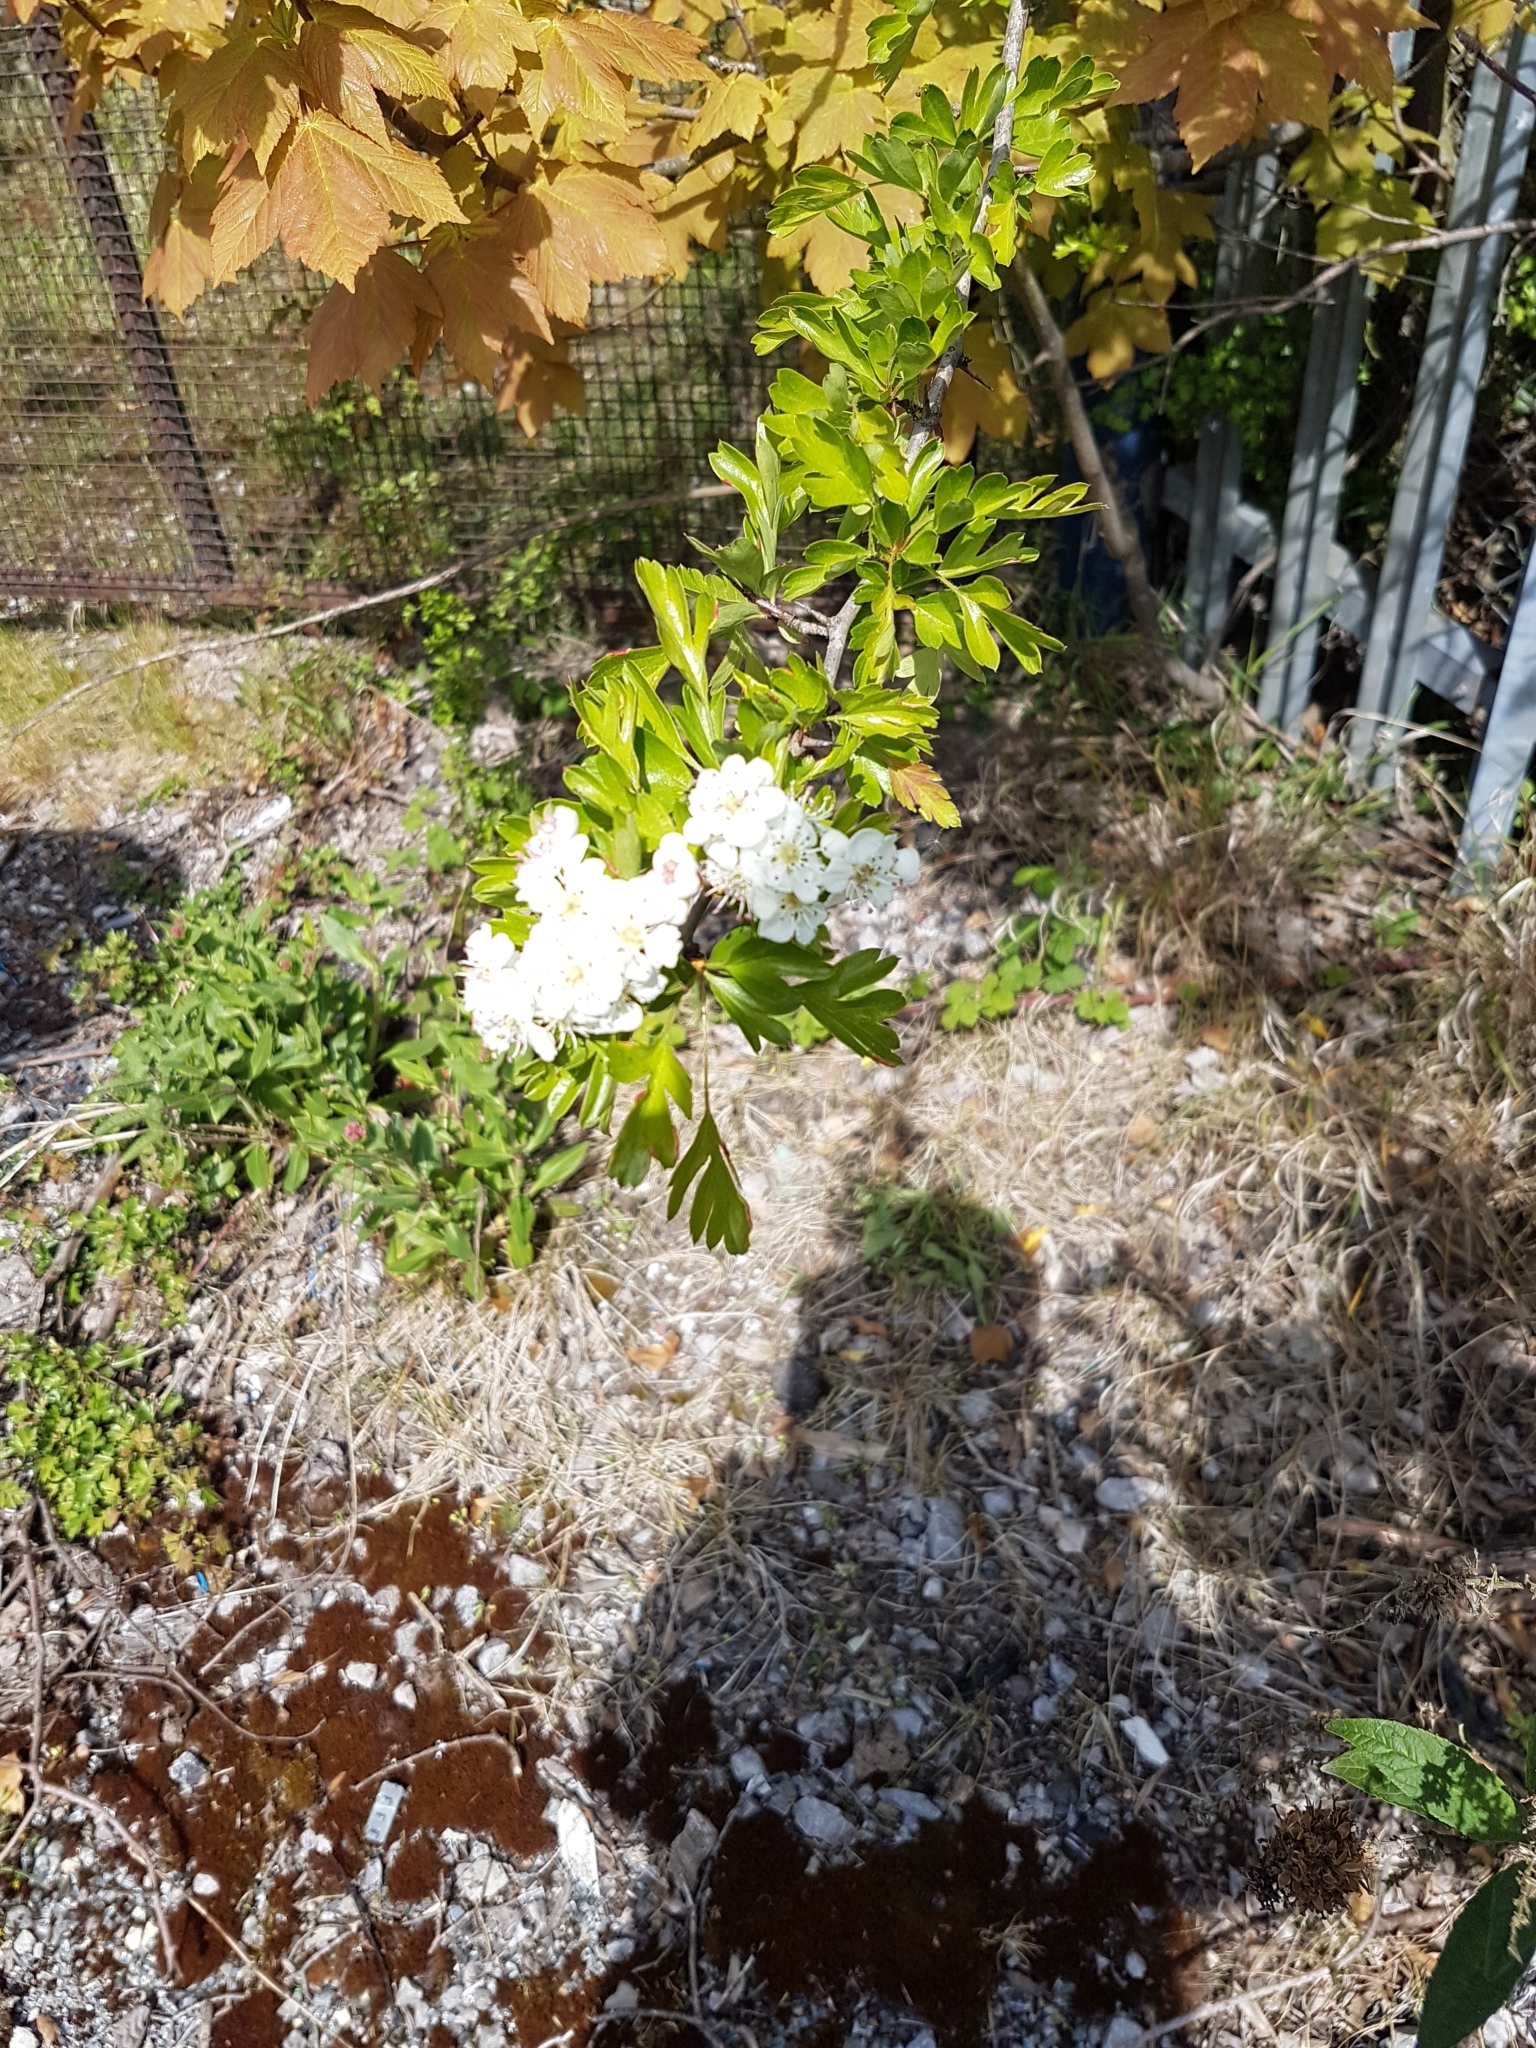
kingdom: Plantae
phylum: Tracheophyta
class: Magnoliopsida
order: Rosales
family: Rosaceae
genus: Crataegus
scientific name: Crataegus monogyna
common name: Hawthorn
